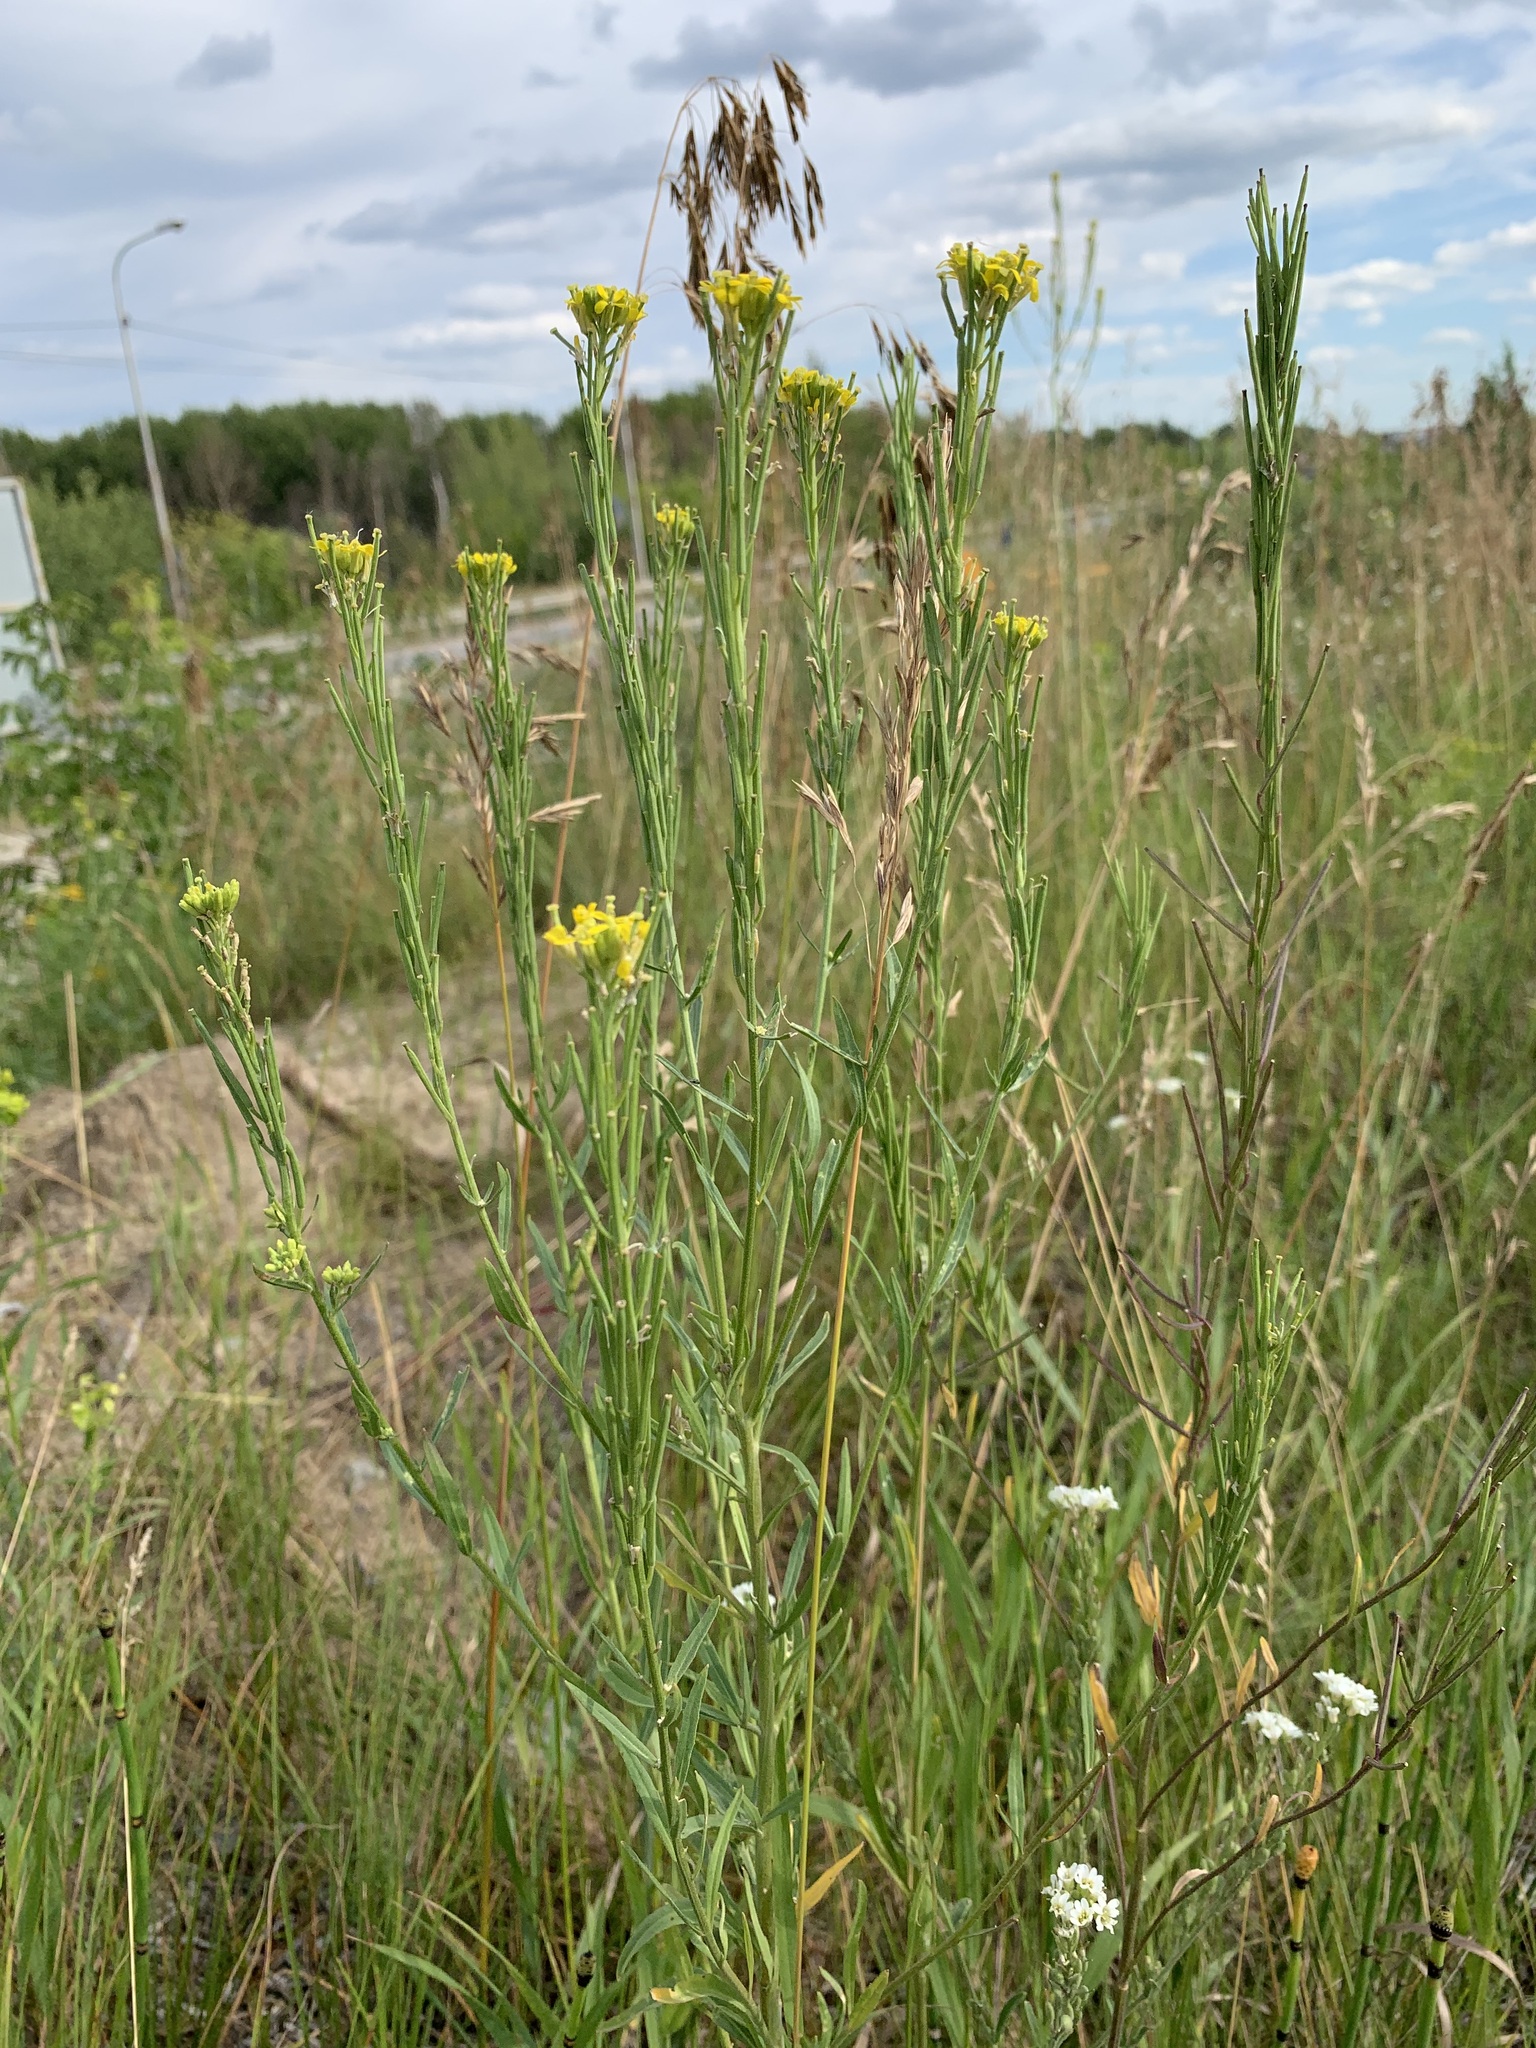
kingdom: Plantae
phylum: Tracheophyta
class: Magnoliopsida
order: Brassicales
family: Brassicaceae
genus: Erysimum
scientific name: Erysimum hieraciifolium
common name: European wallflower
